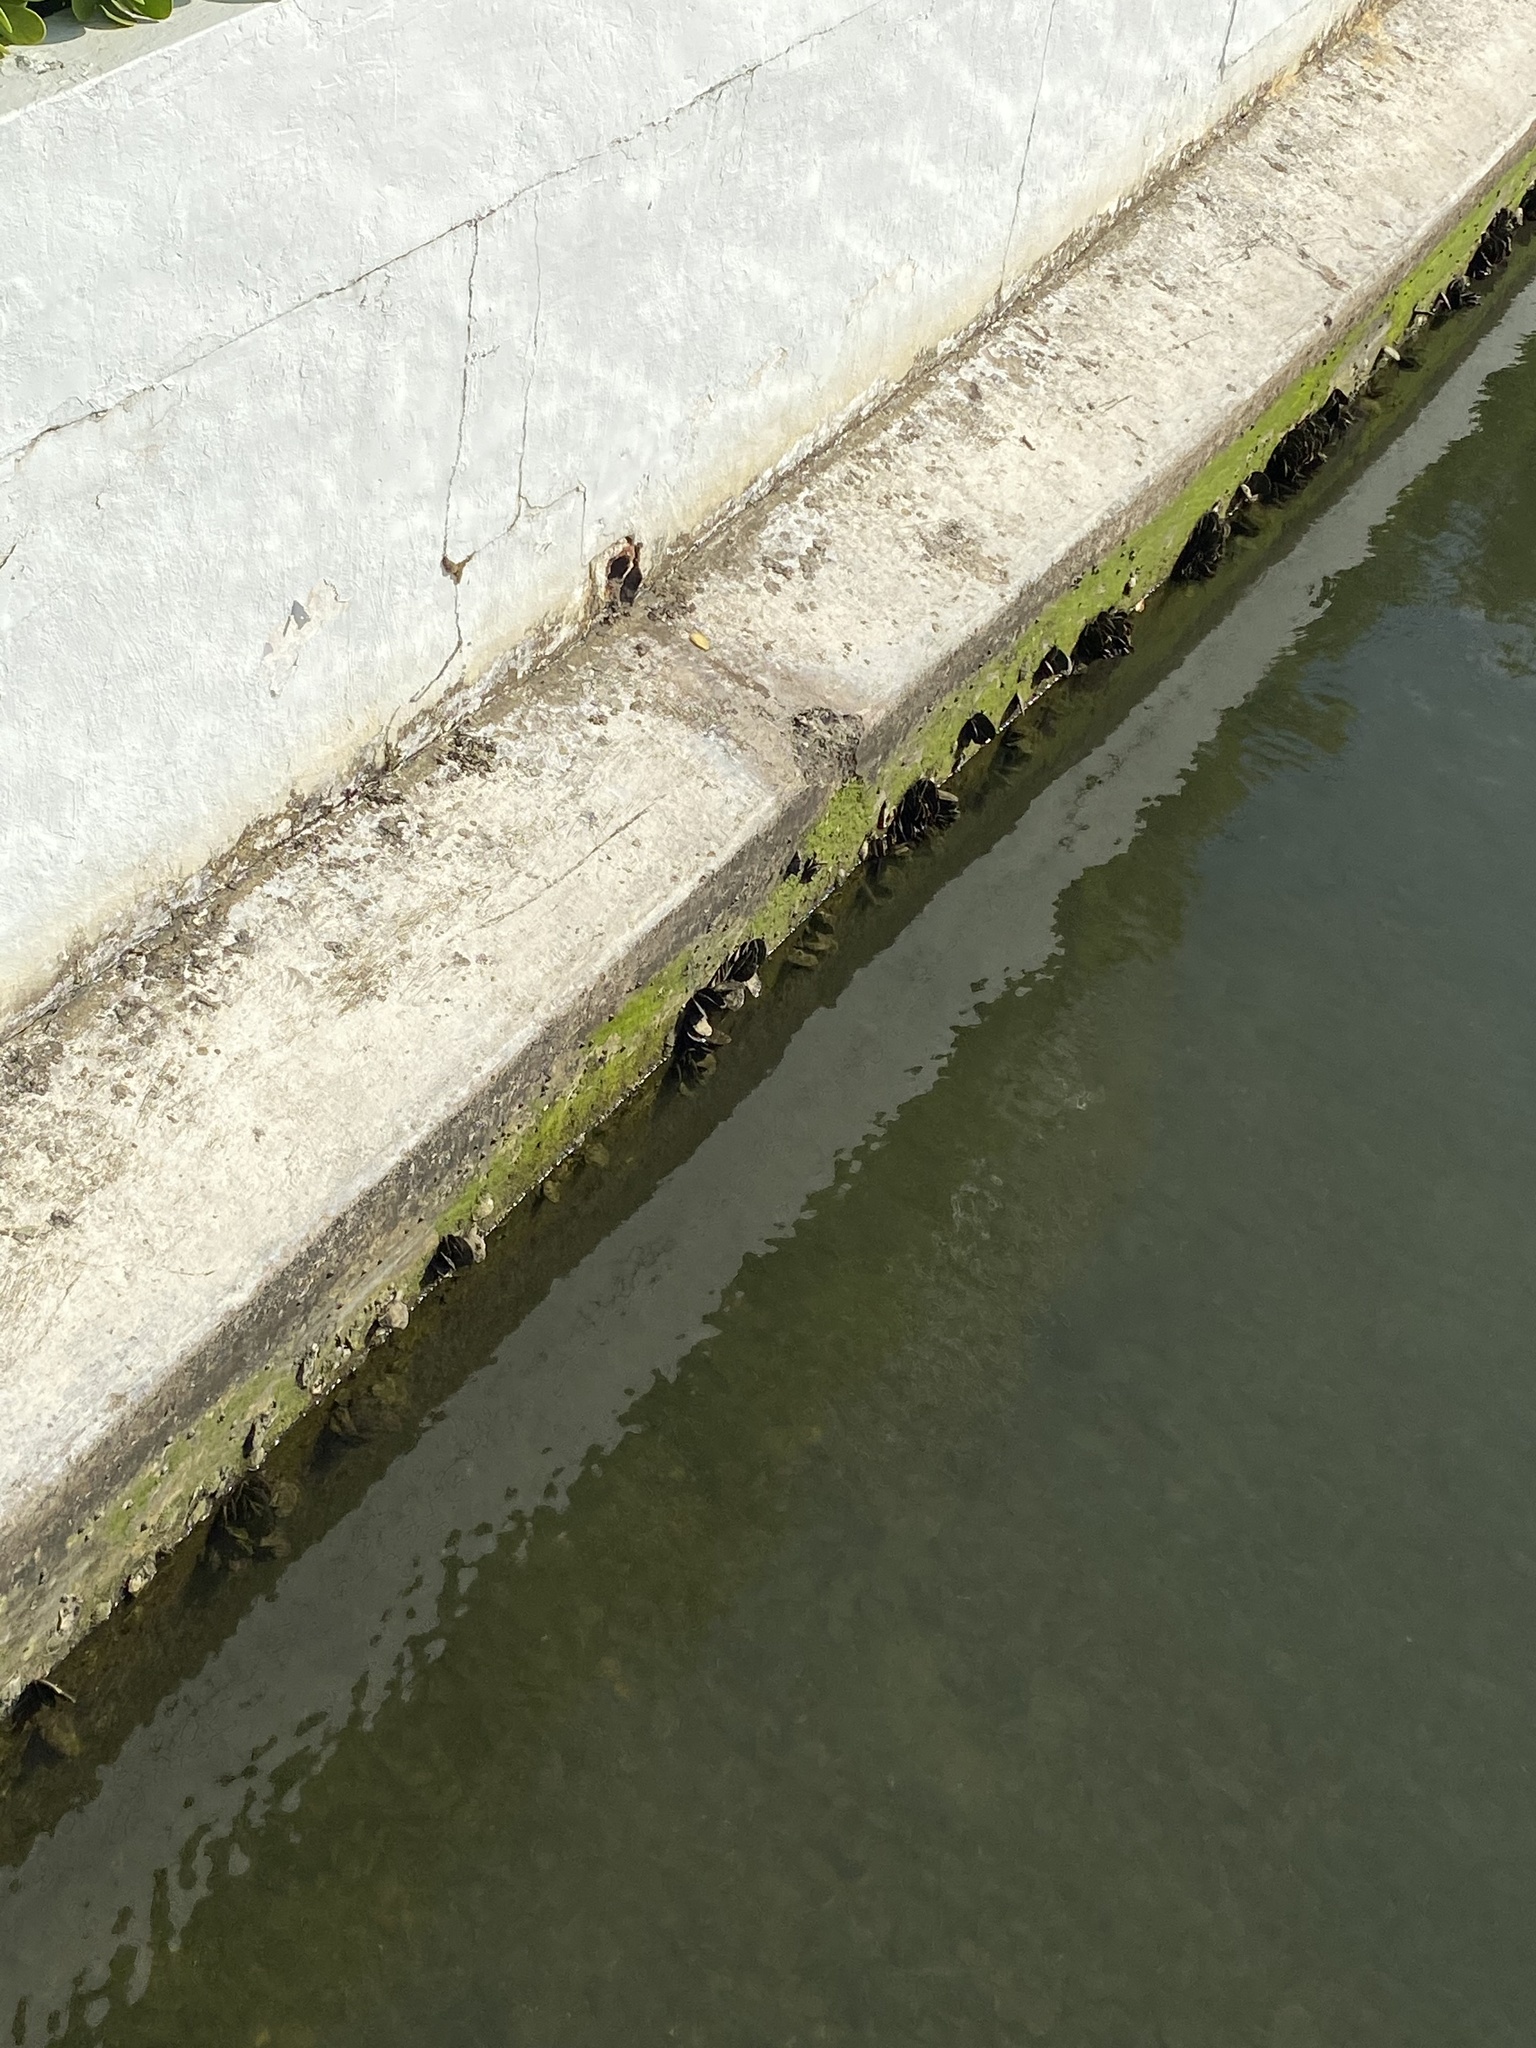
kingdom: Animalia
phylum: Mollusca
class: Bivalvia
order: Ostreida
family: Isognomonidae
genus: Isognomon
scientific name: Isognomon alatus
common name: Flat tree-oyster
